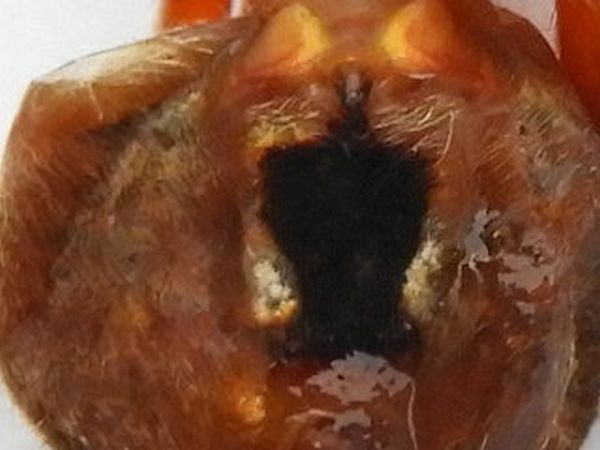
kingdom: Animalia
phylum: Arthropoda
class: Arachnida
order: Araneae
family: Araneidae
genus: Neoscona
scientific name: Neoscona crucifera
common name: Spotted orbweaver
